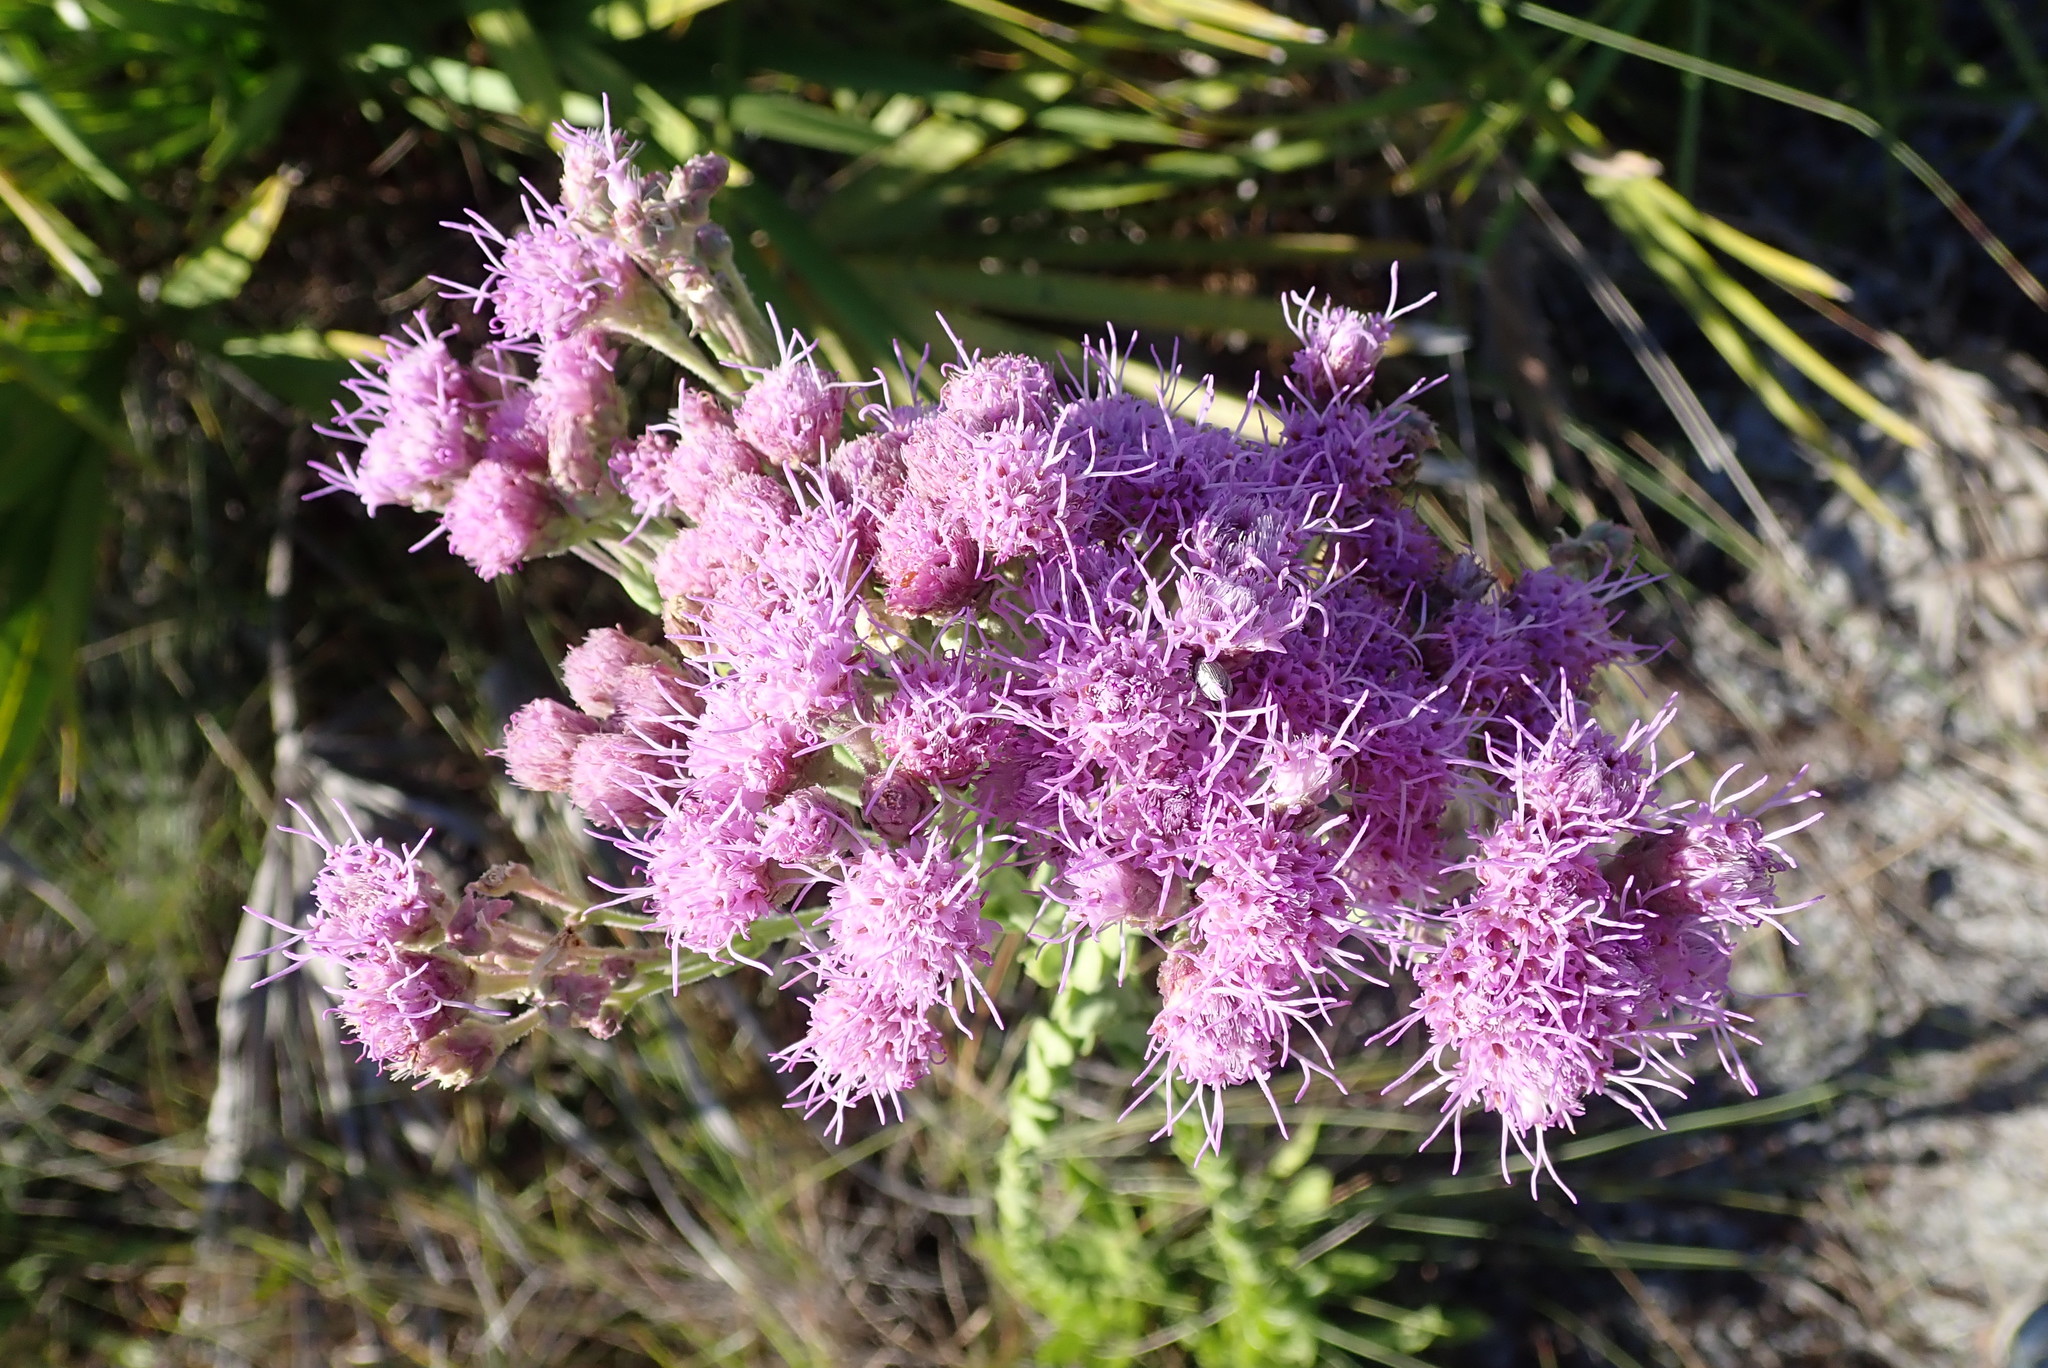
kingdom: Plantae
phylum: Tracheophyta
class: Magnoliopsida
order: Asterales
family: Asteraceae
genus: Carphephorus
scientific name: Carphephorus corymbosus
